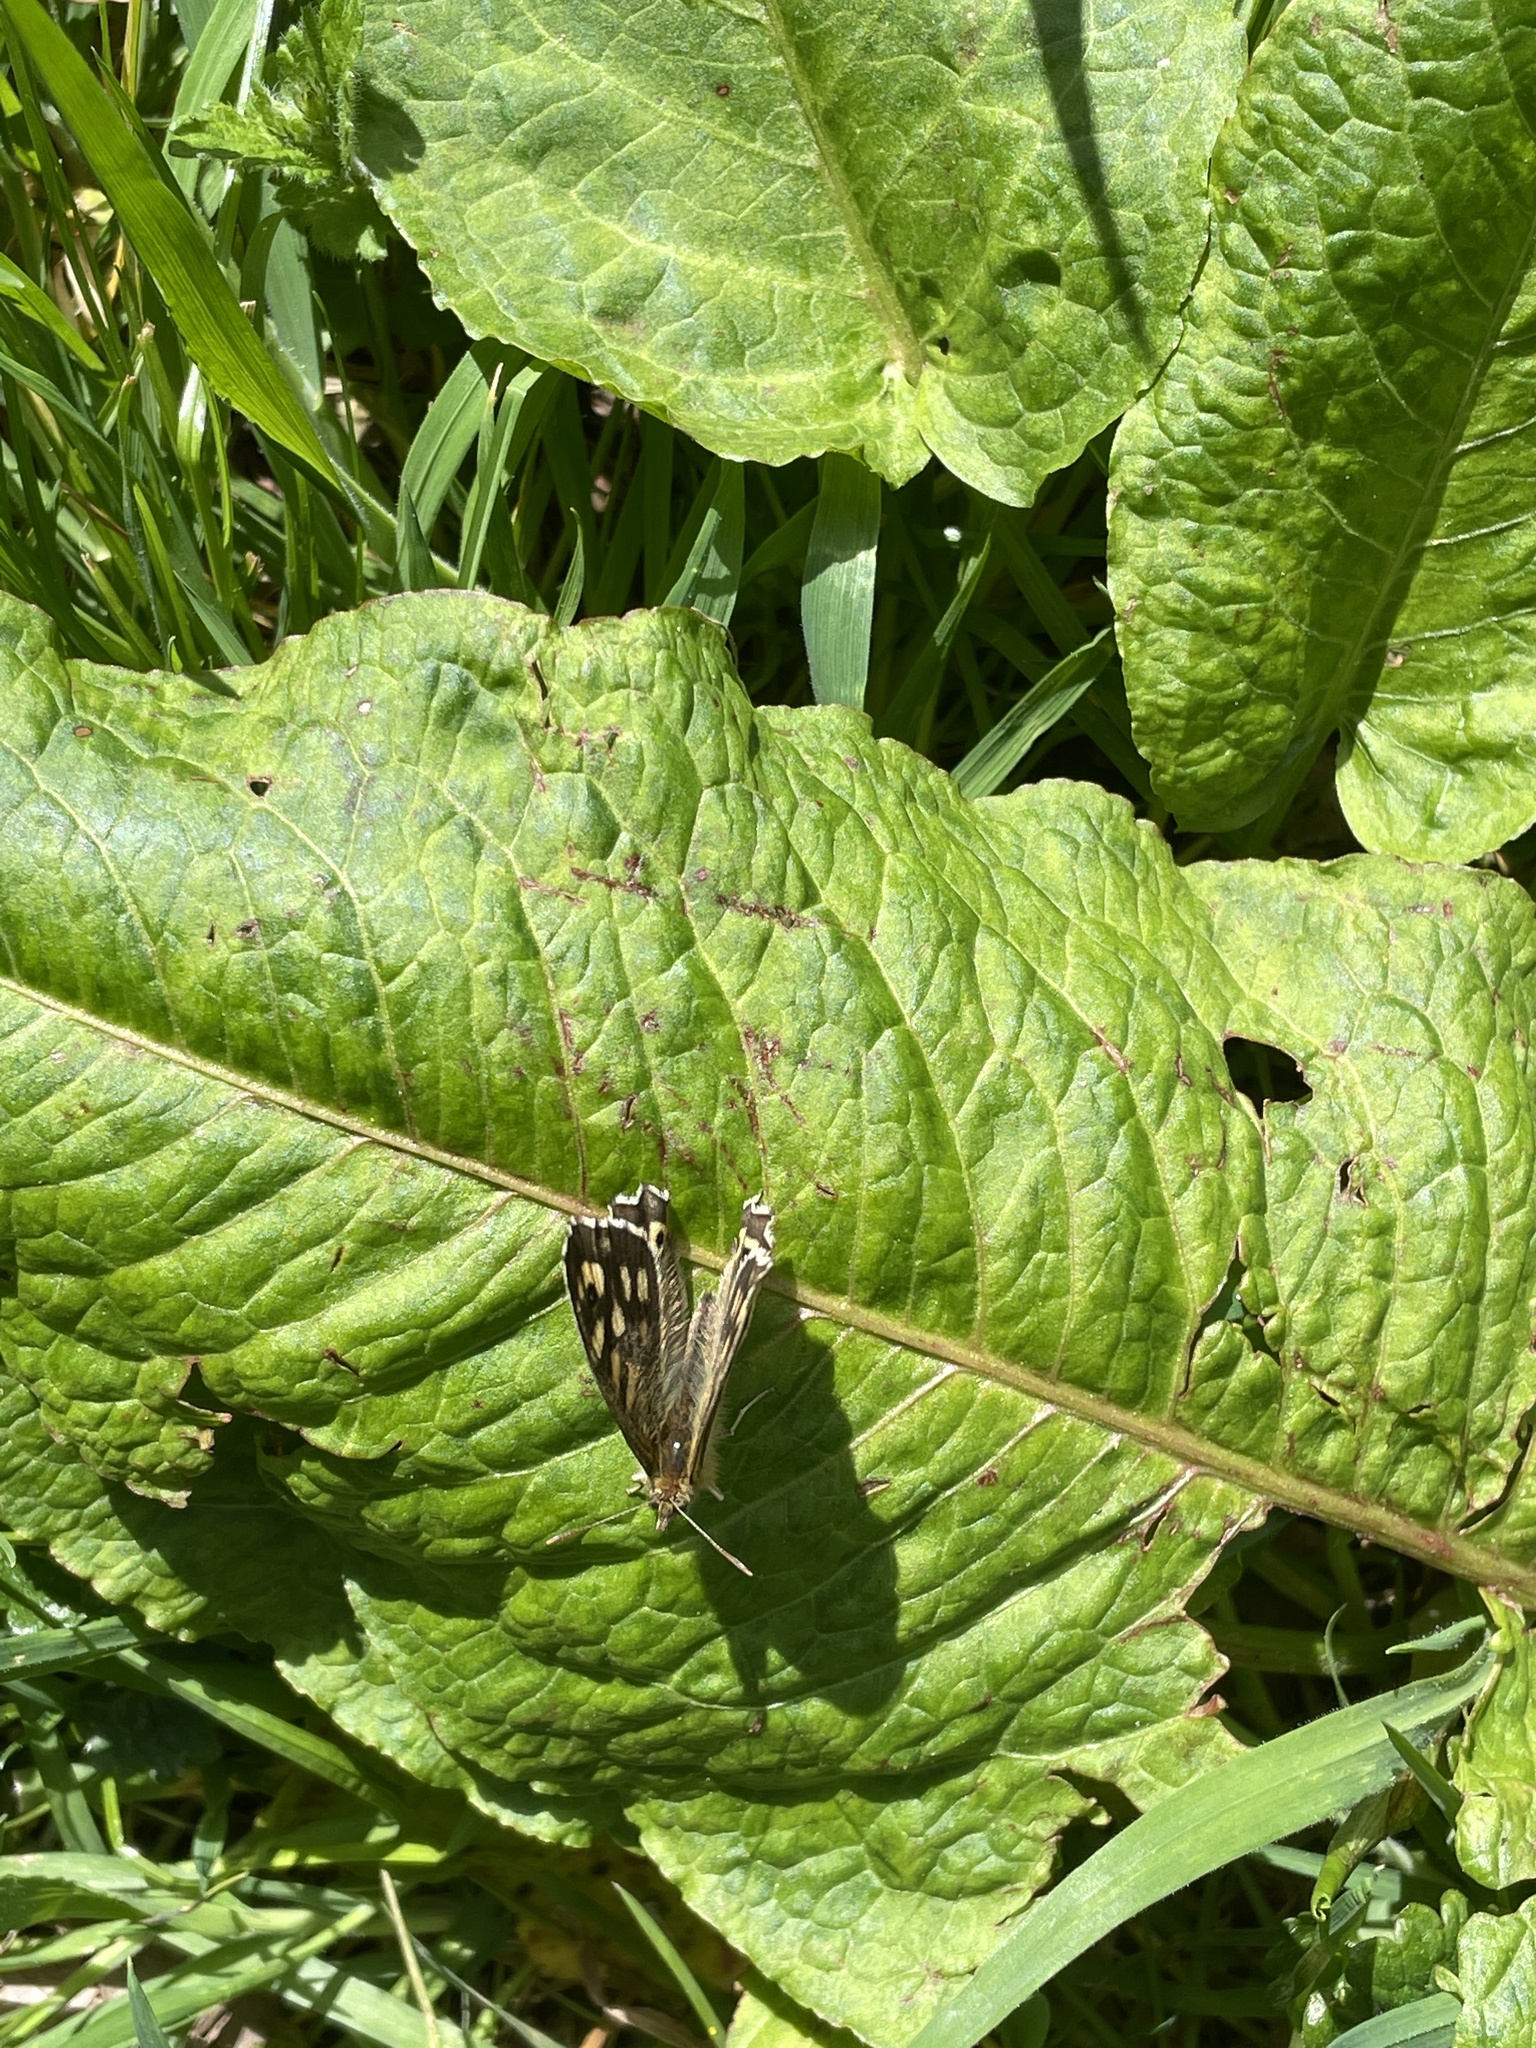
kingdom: Animalia
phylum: Arthropoda
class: Insecta
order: Lepidoptera
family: Nymphalidae
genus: Pararge
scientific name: Pararge aegeria
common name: Speckled wood
